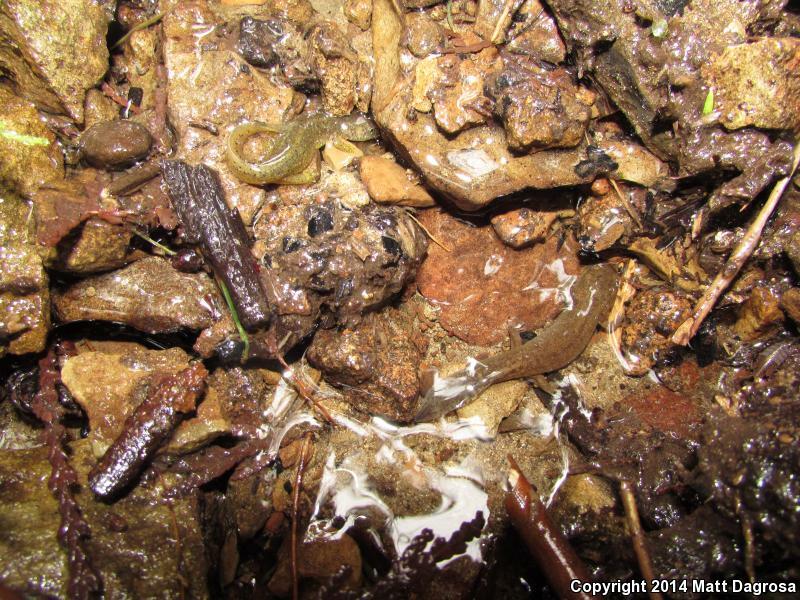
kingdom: Animalia
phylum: Chordata
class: Amphibia
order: Caudata
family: Rhyacotritonidae
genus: Rhyacotriton
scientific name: Rhyacotriton variegatus
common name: Southern torrent salamander
